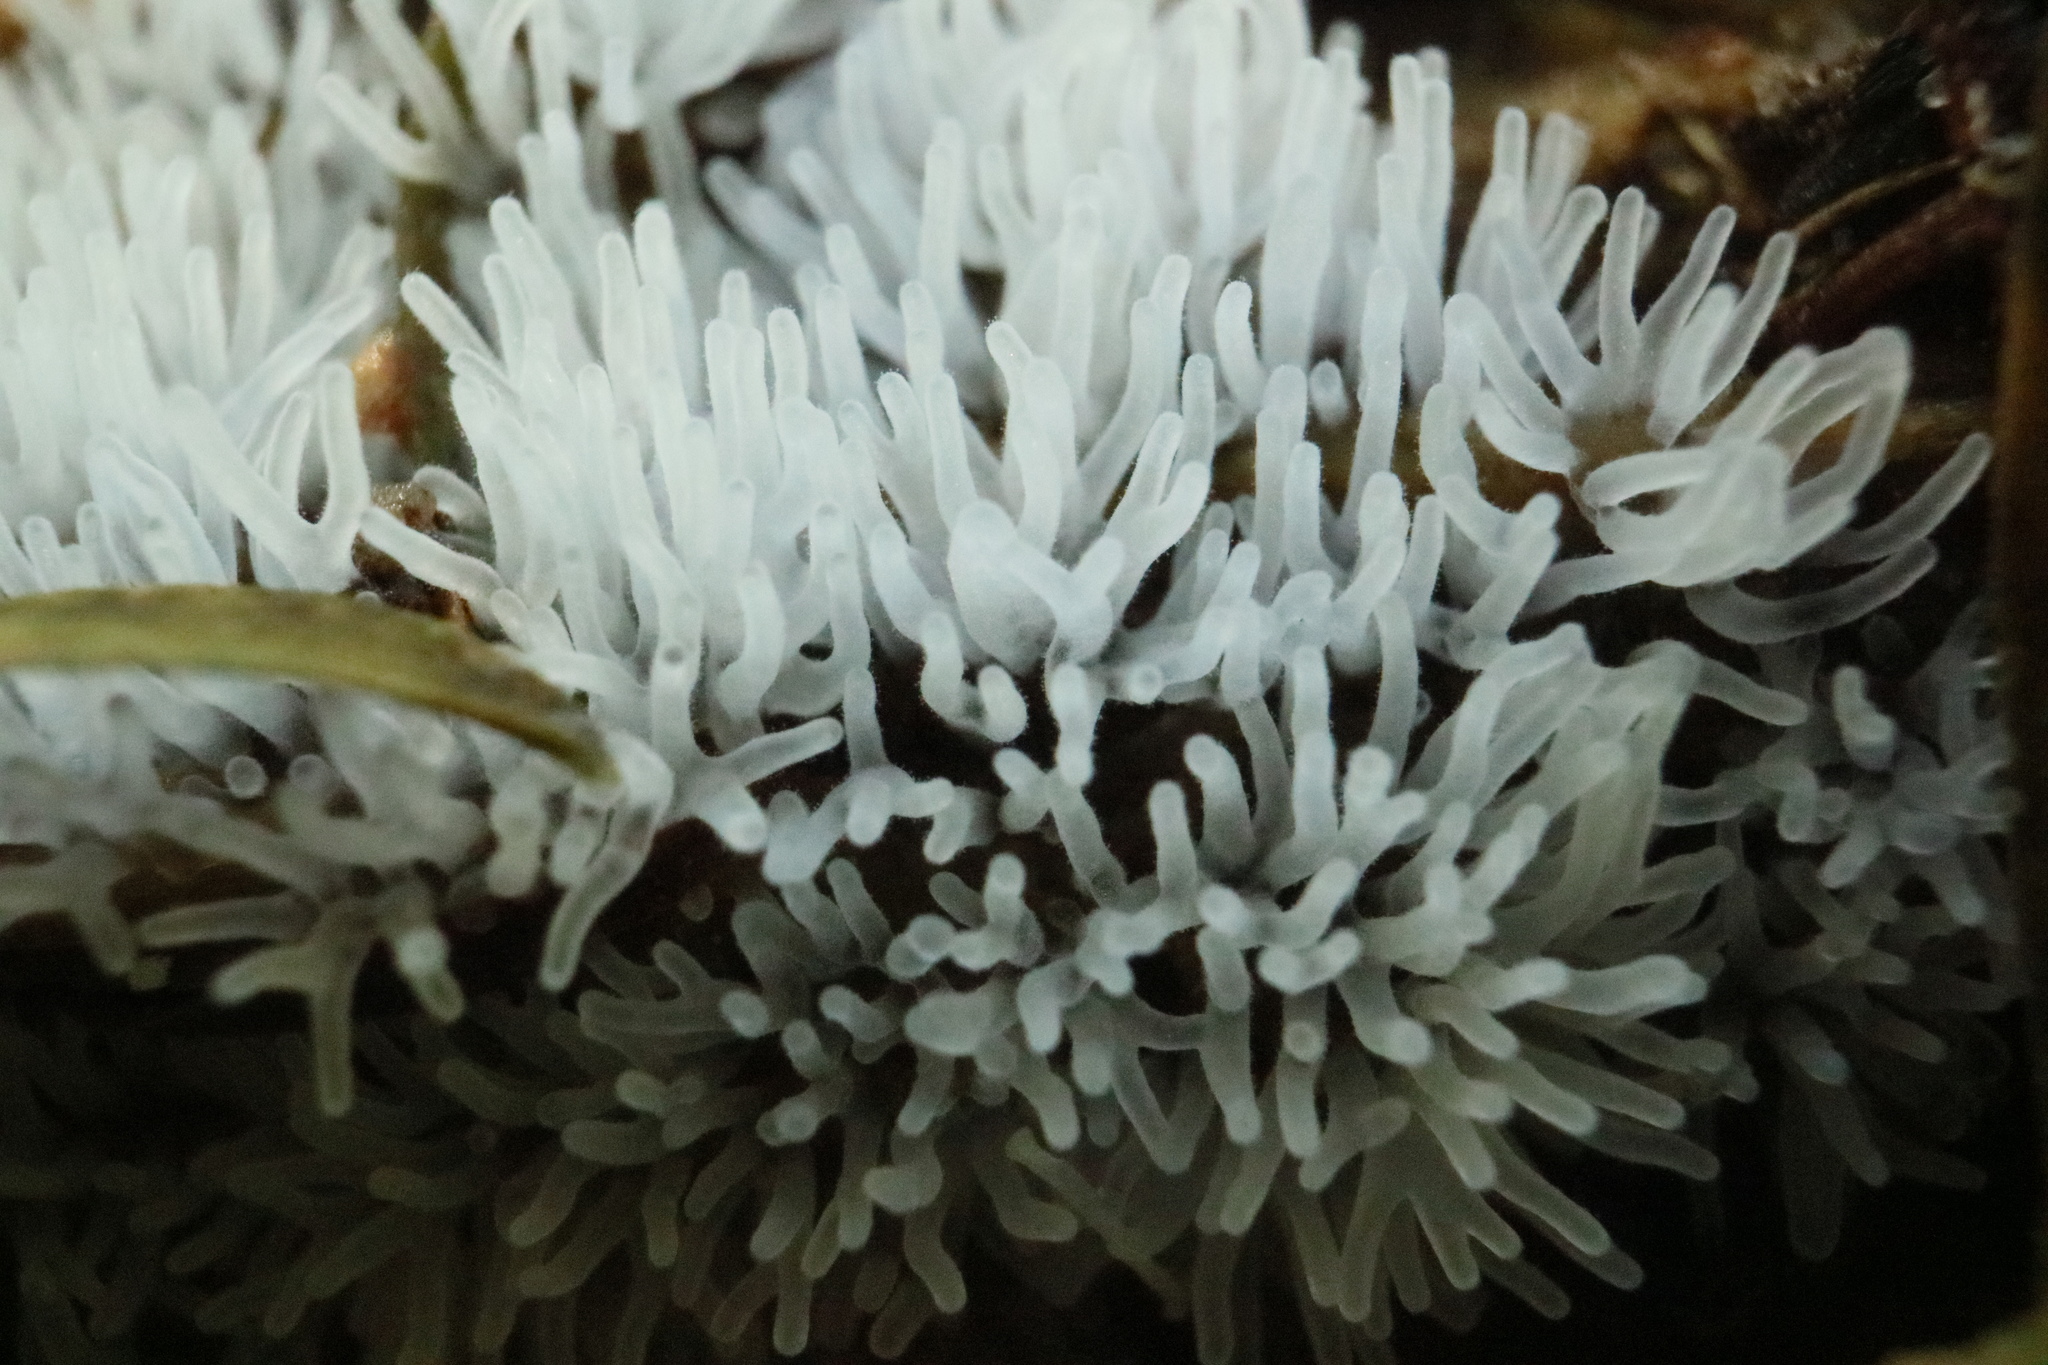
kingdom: Protozoa
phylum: Mycetozoa
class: Protosteliomycetes
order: Ceratiomyxales
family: Ceratiomyxaceae
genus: Ceratiomyxa
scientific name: Ceratiomyxa fruticulosa
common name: Honeycomb coral slime mold
